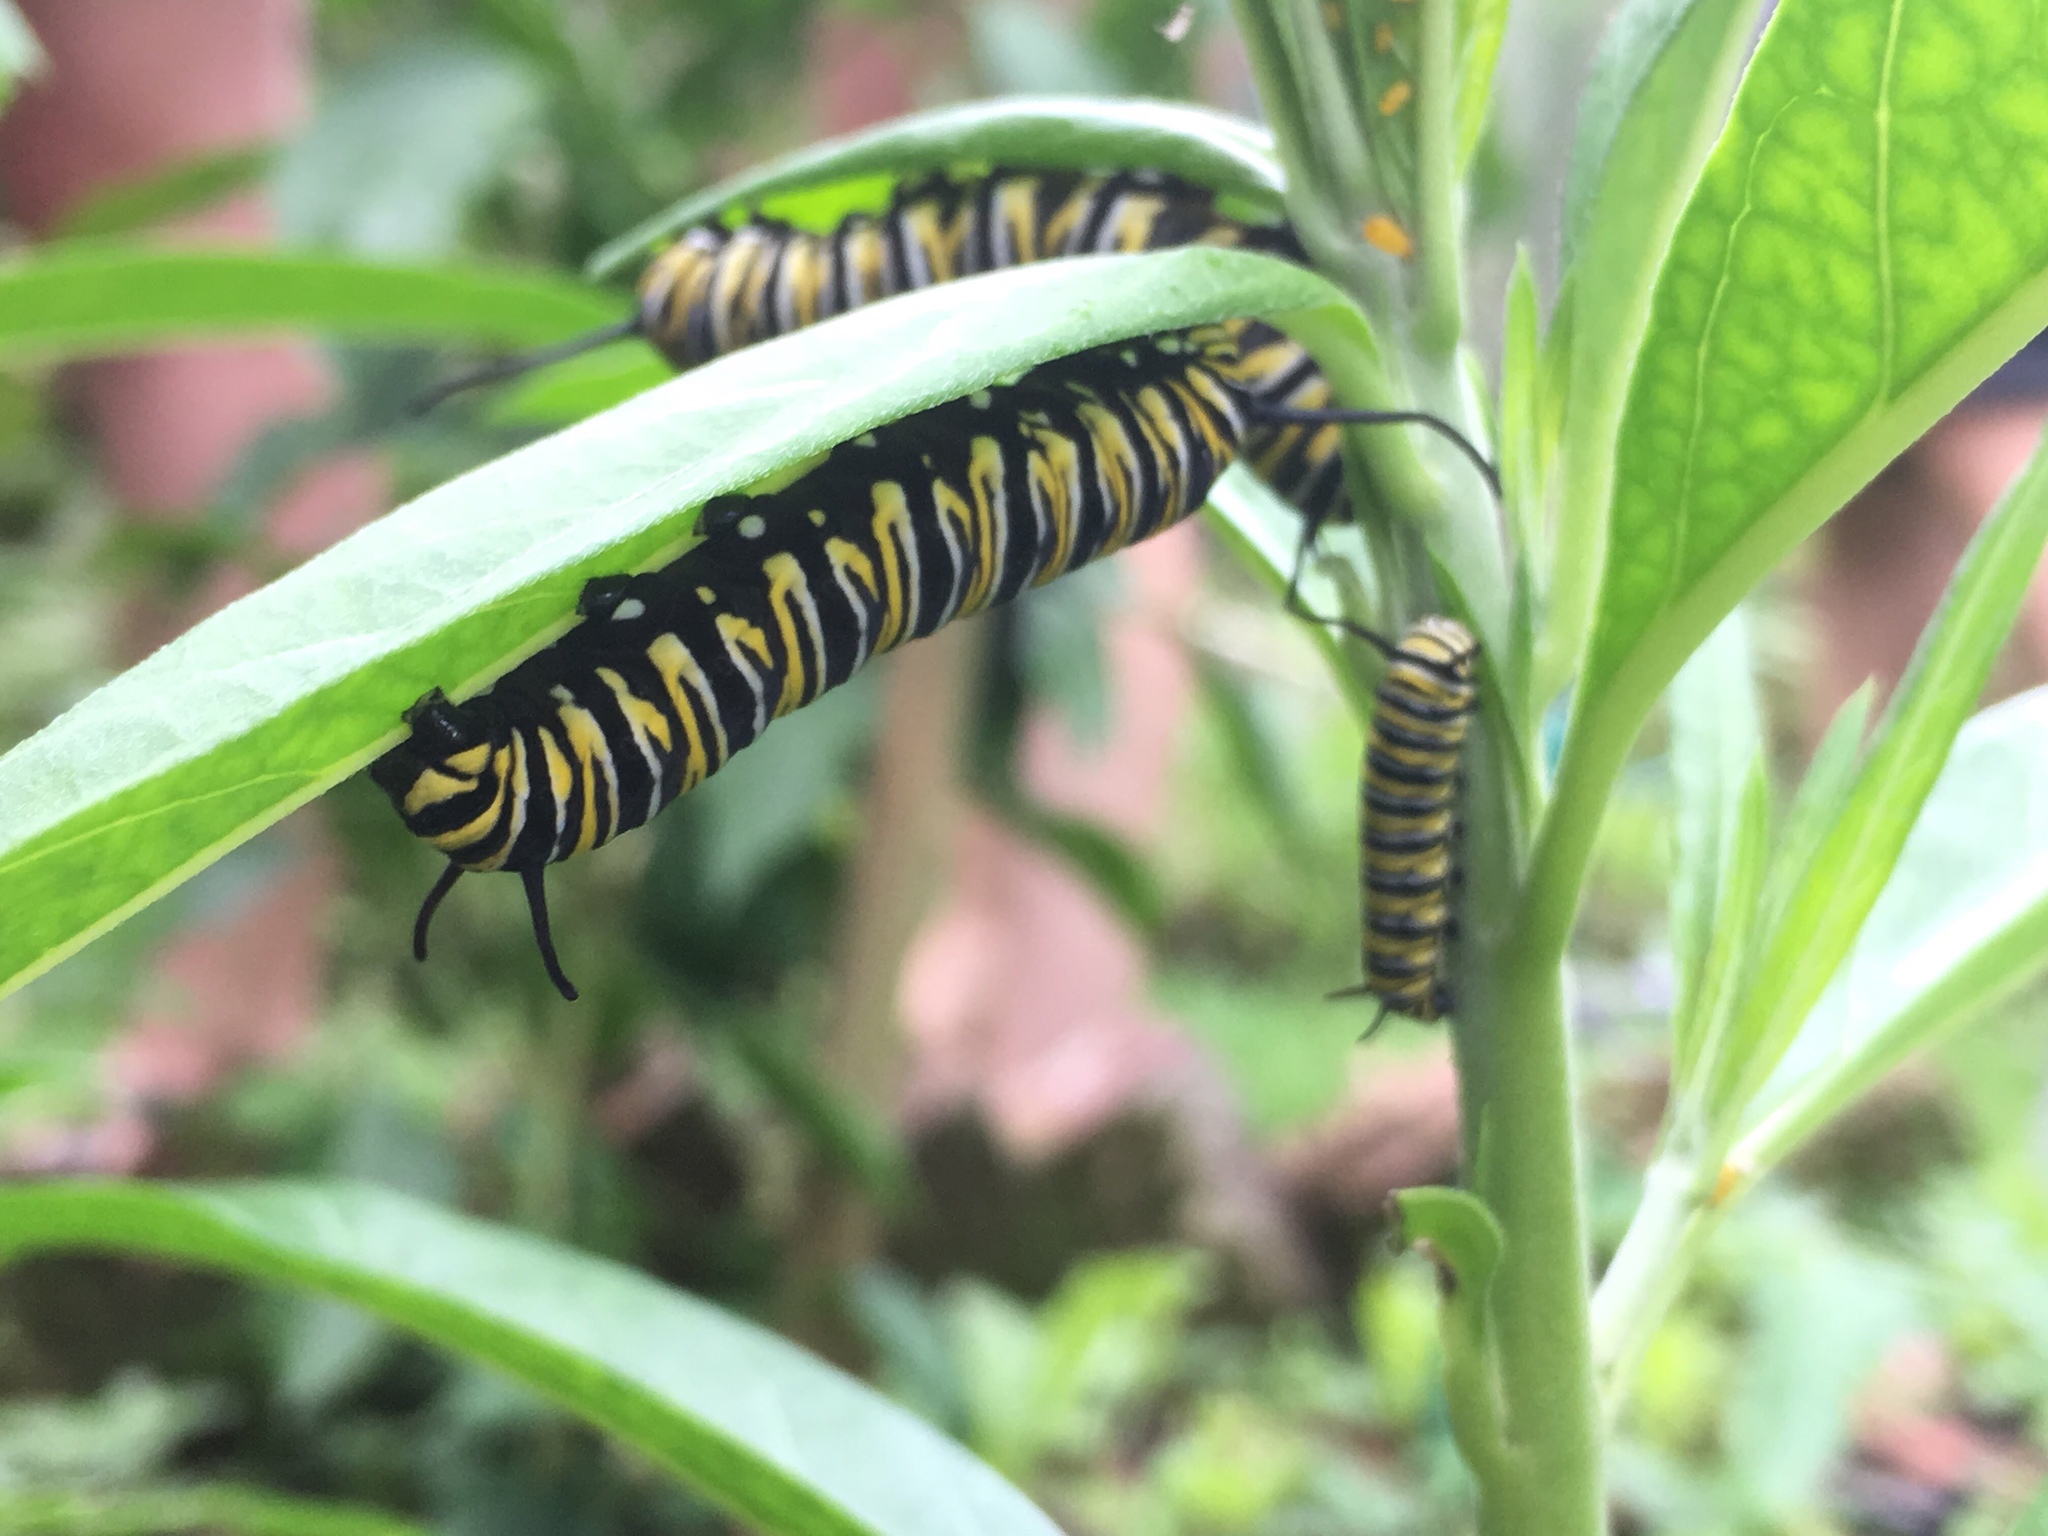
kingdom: Animalia
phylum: Arthropoda
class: Insecta
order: Lepidoptera
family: Nymphalidae
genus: Danaus
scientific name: Danaus plexippus
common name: Monarch
